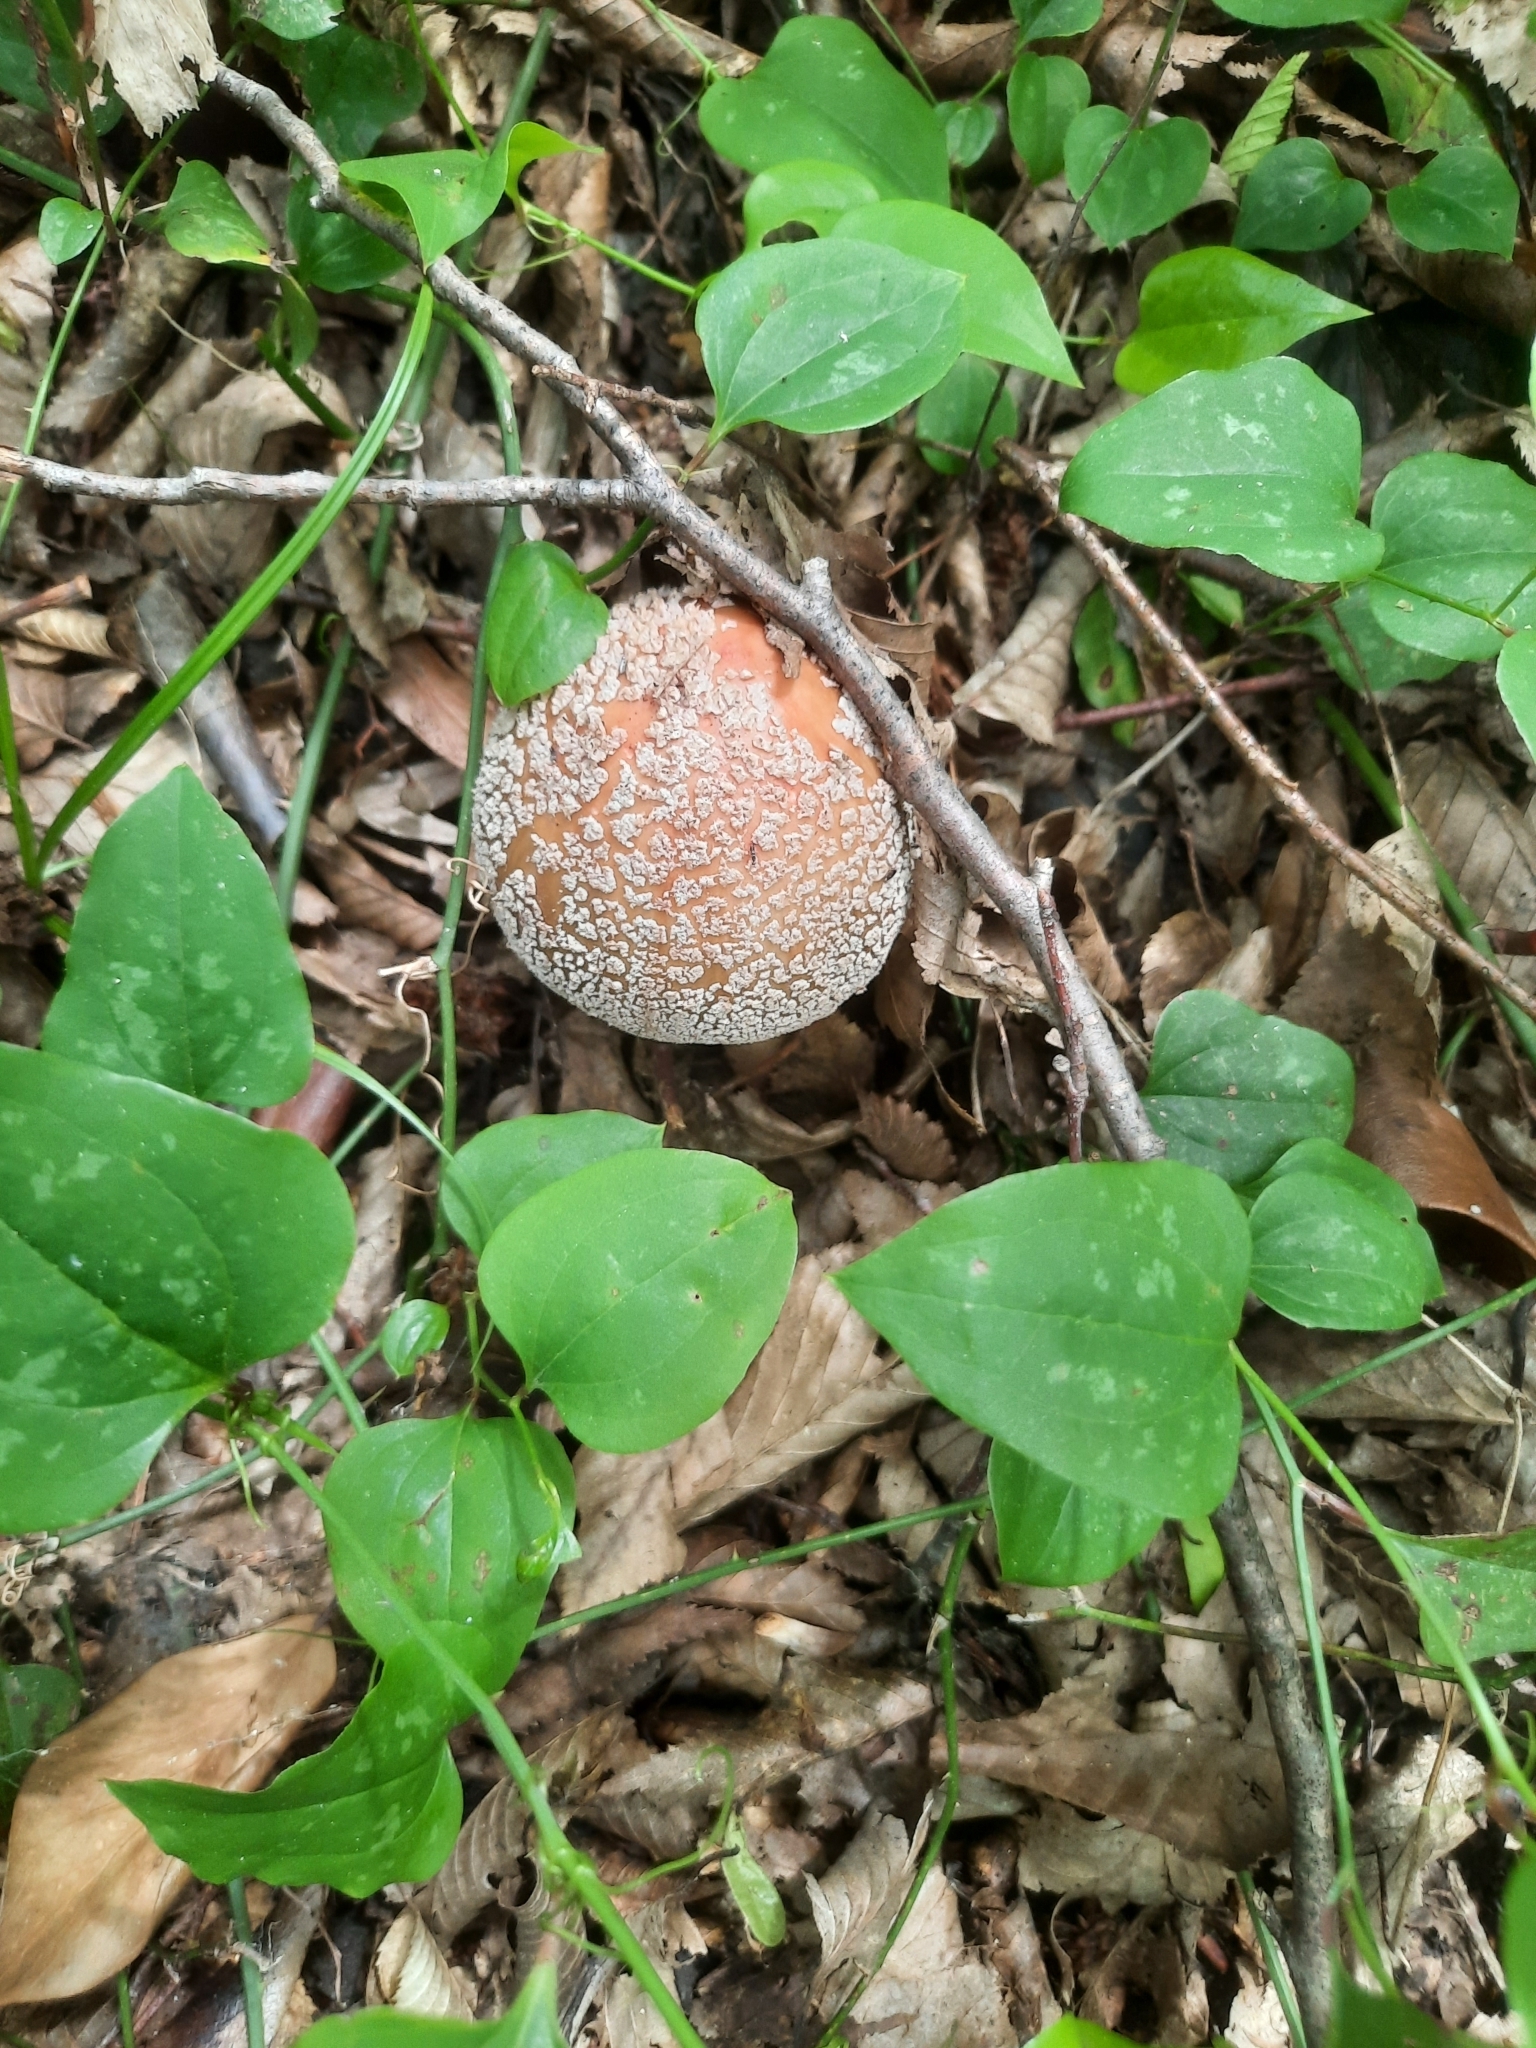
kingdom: Fungi
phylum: Basidiomycota
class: Agaricomycetes
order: Agaricales
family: Amanitaceae
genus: Amanita
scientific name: Amanita rubescens
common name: Blusher
